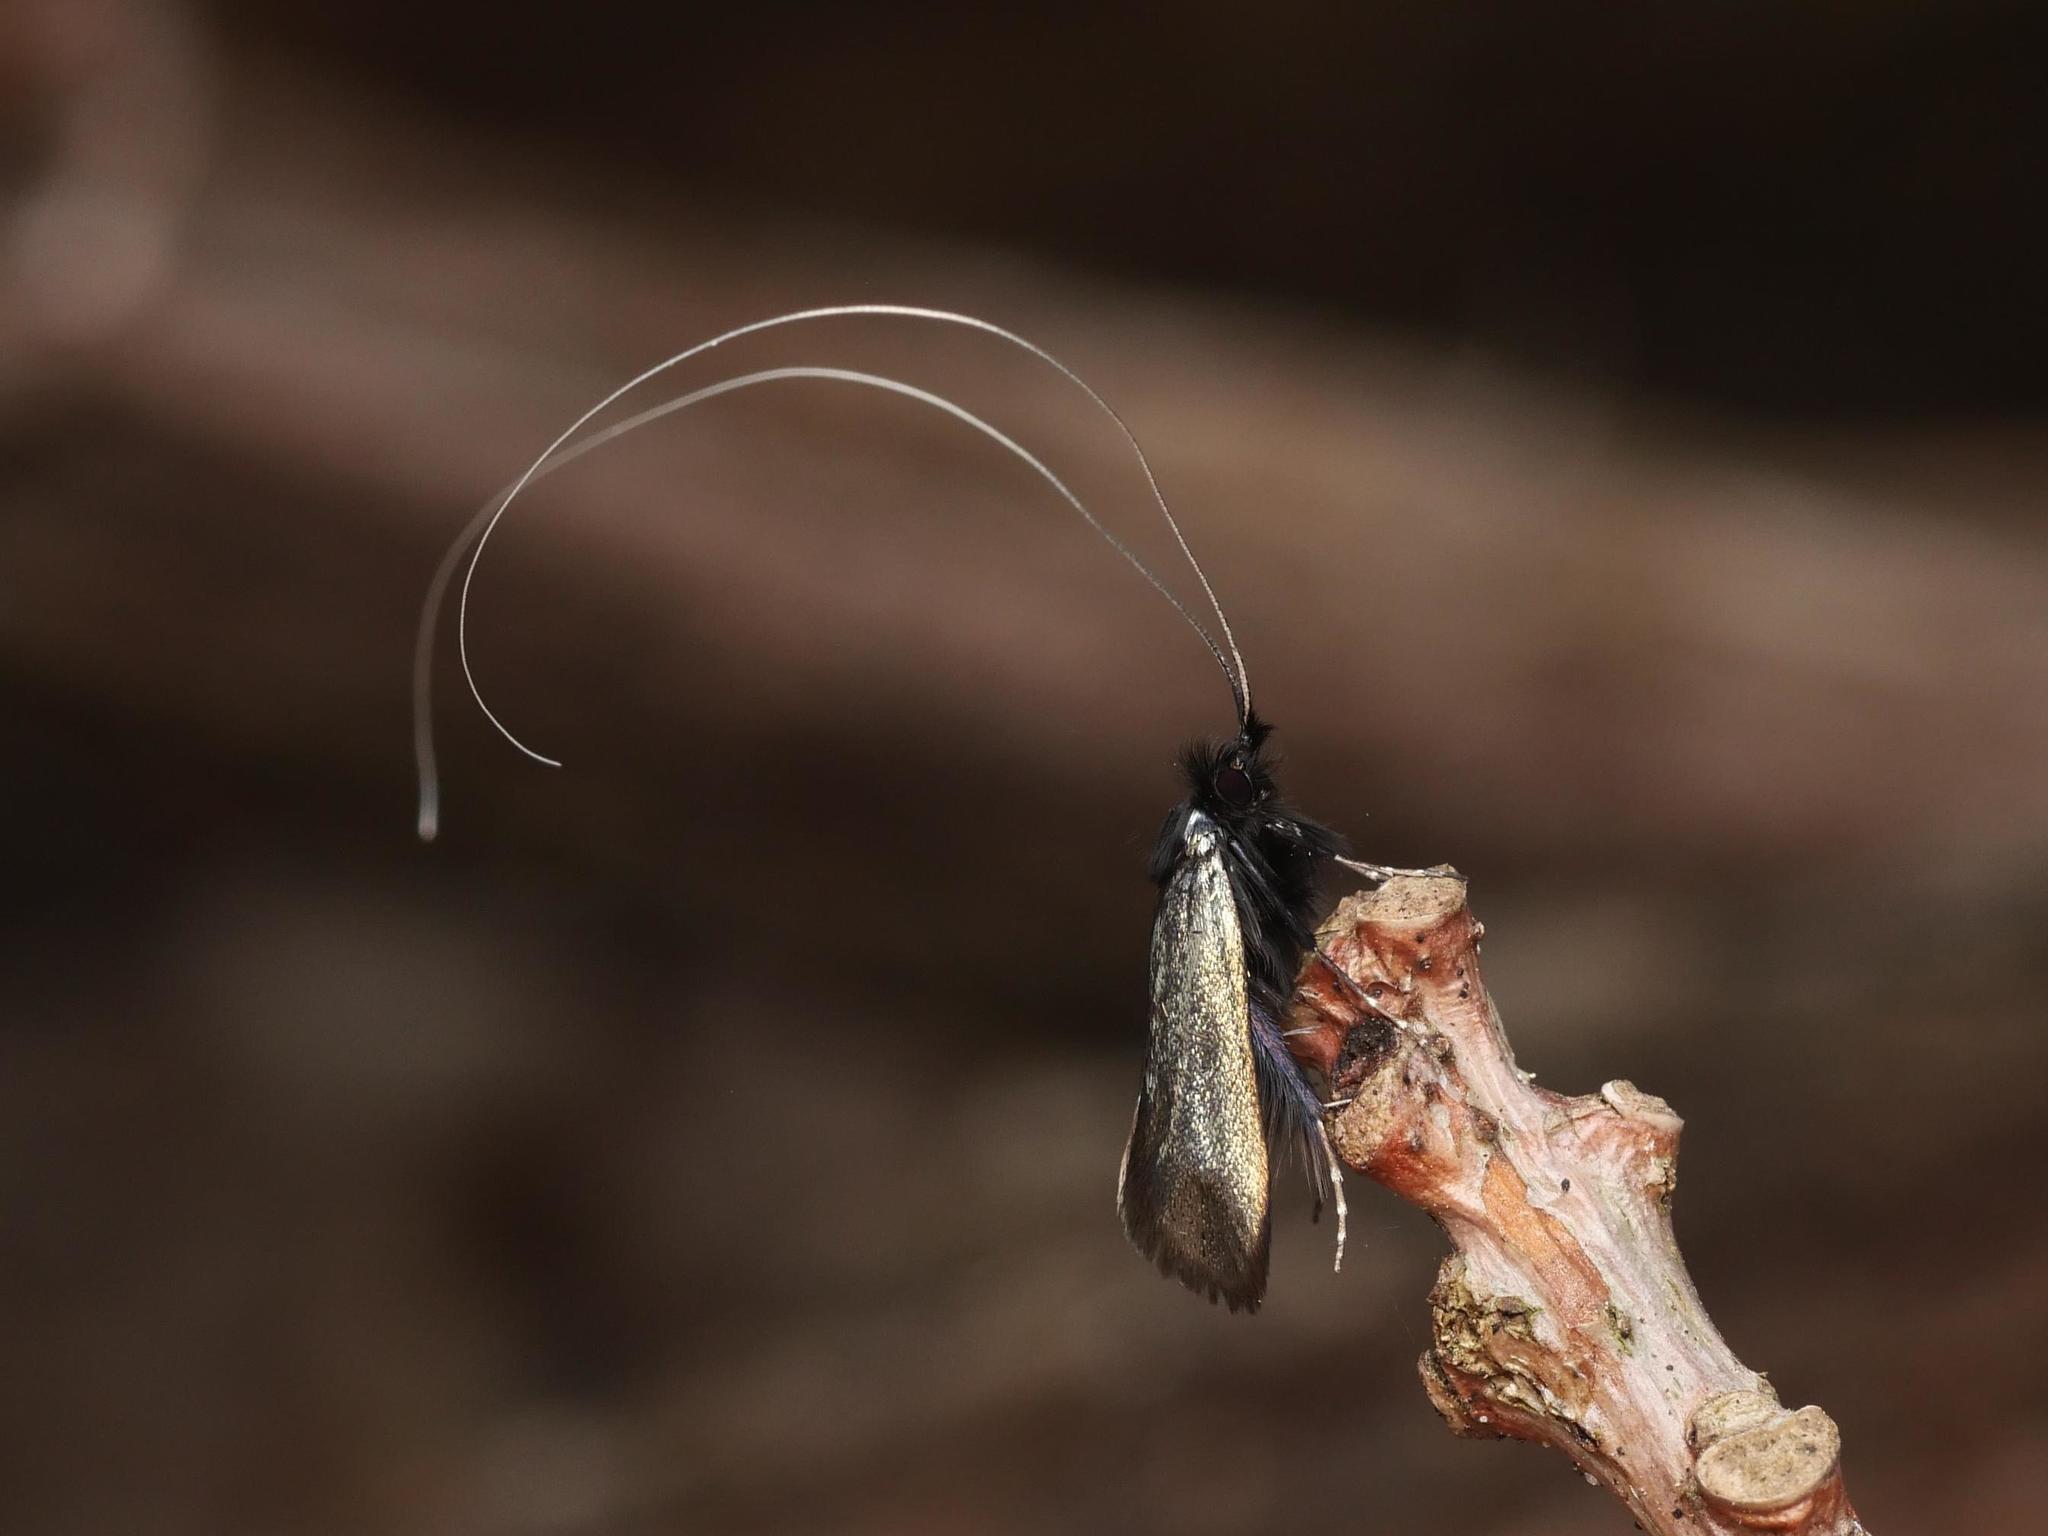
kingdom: Animalia
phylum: Arthropoda
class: Insecta
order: Lepidoptera
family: Adelidae
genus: Adela
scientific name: Adela viridella
